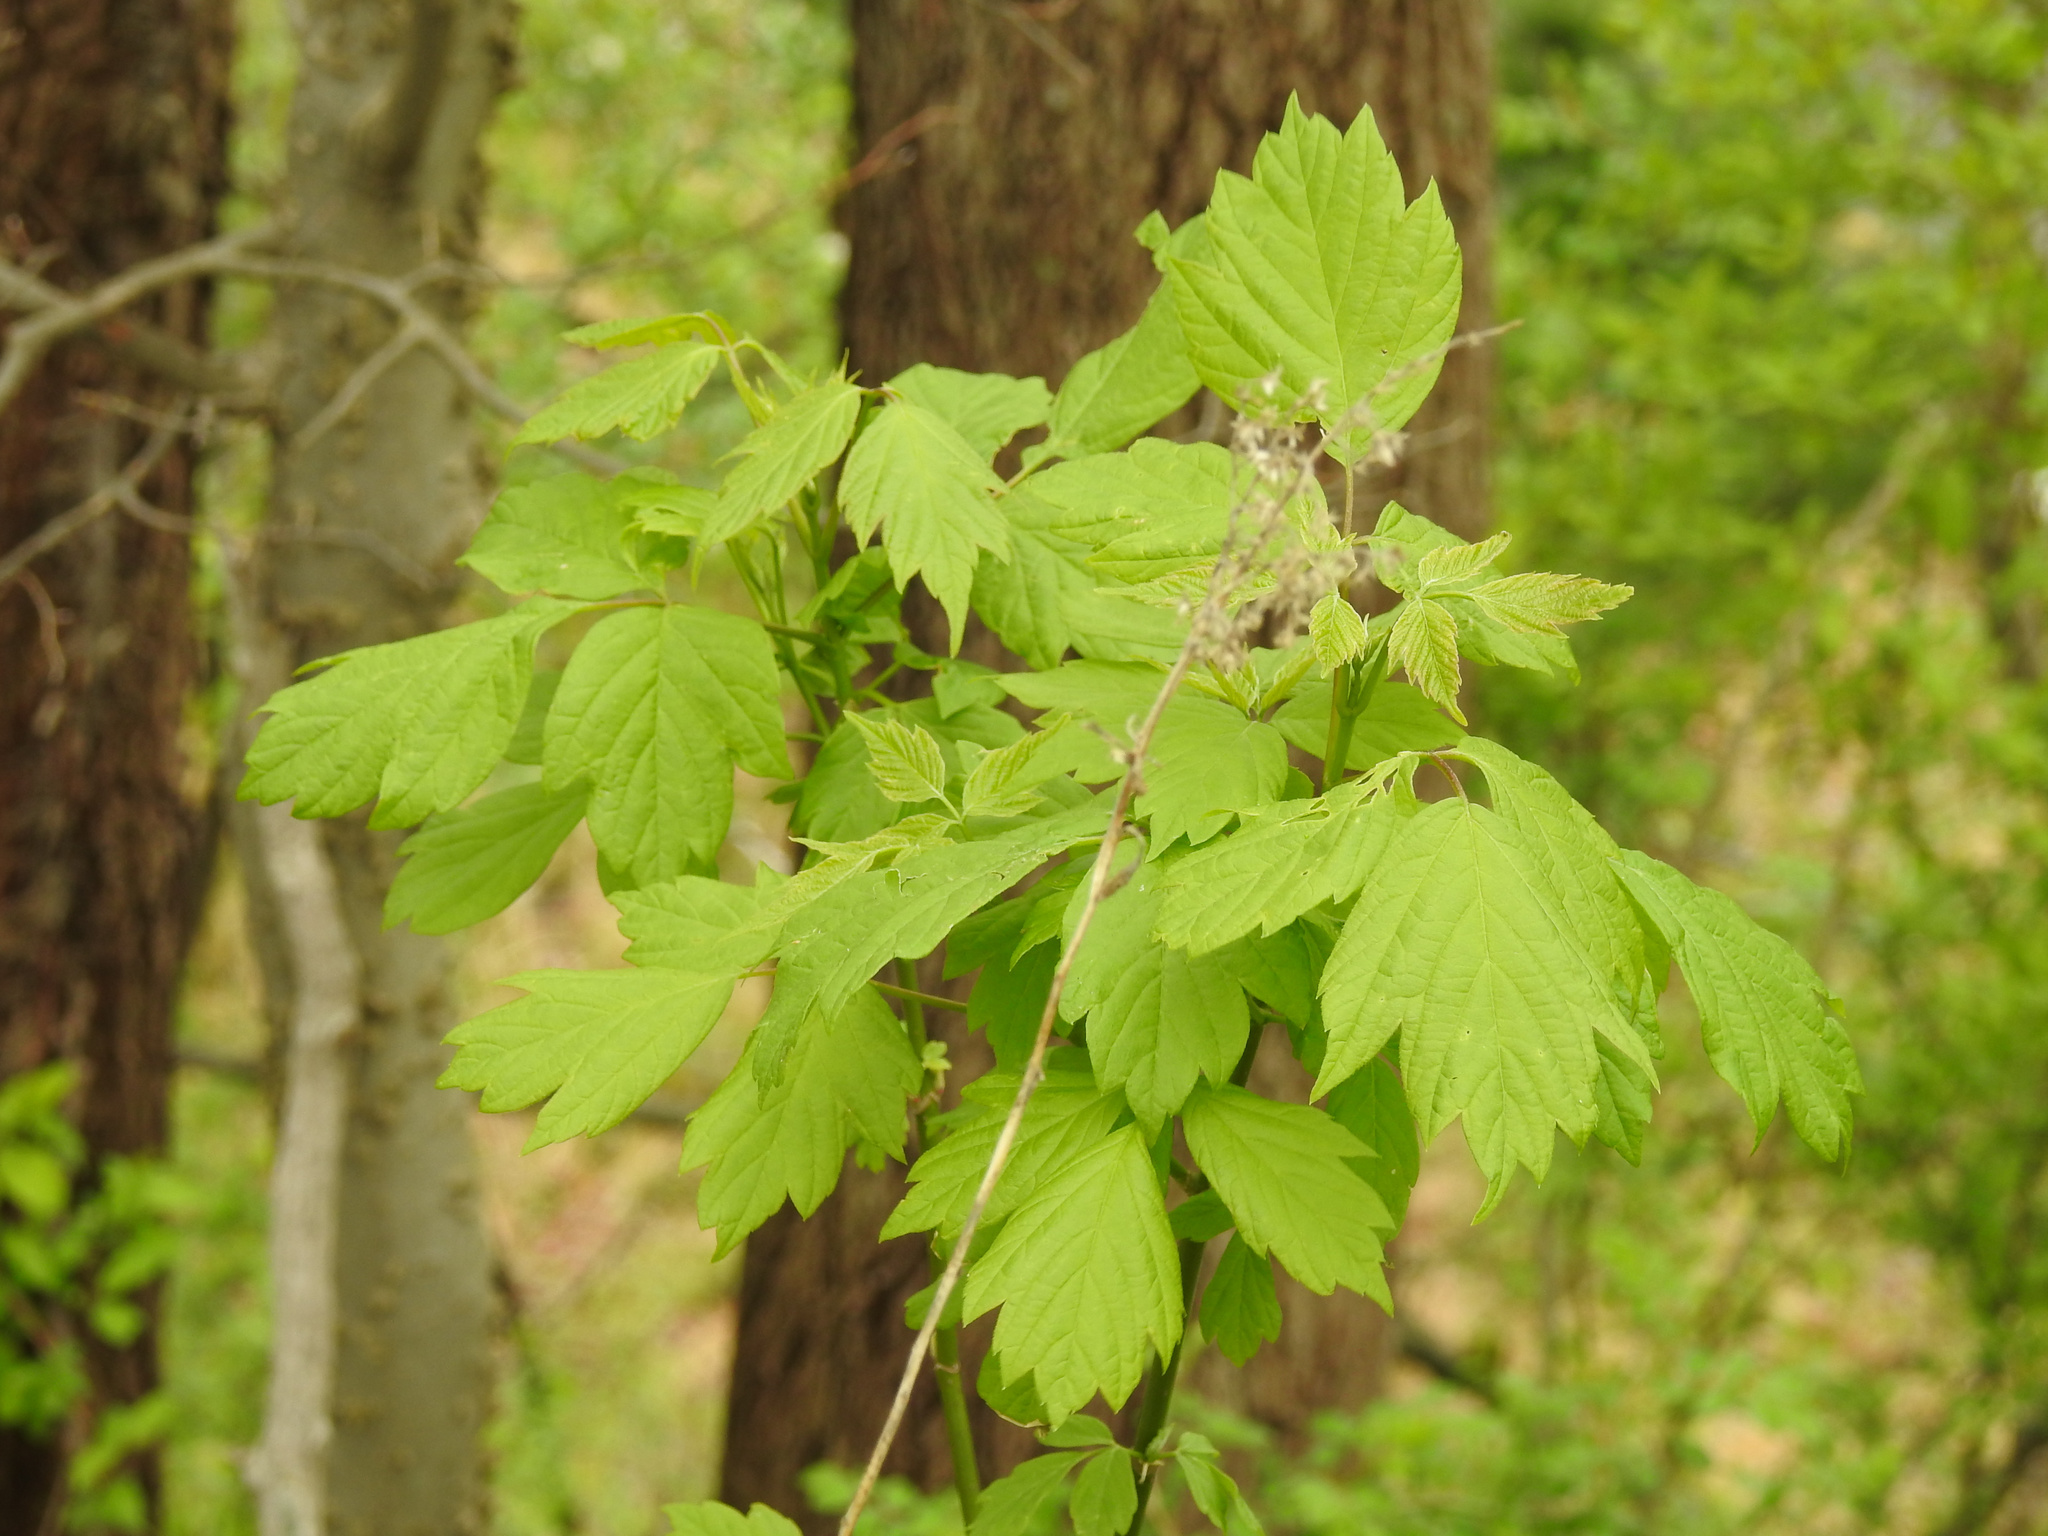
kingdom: Plantae
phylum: Tracheophyta
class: Magnoliopsida
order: Sapindales
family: Sapindaceae
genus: Acer
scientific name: Acer negundo
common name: Ashleaf maple
